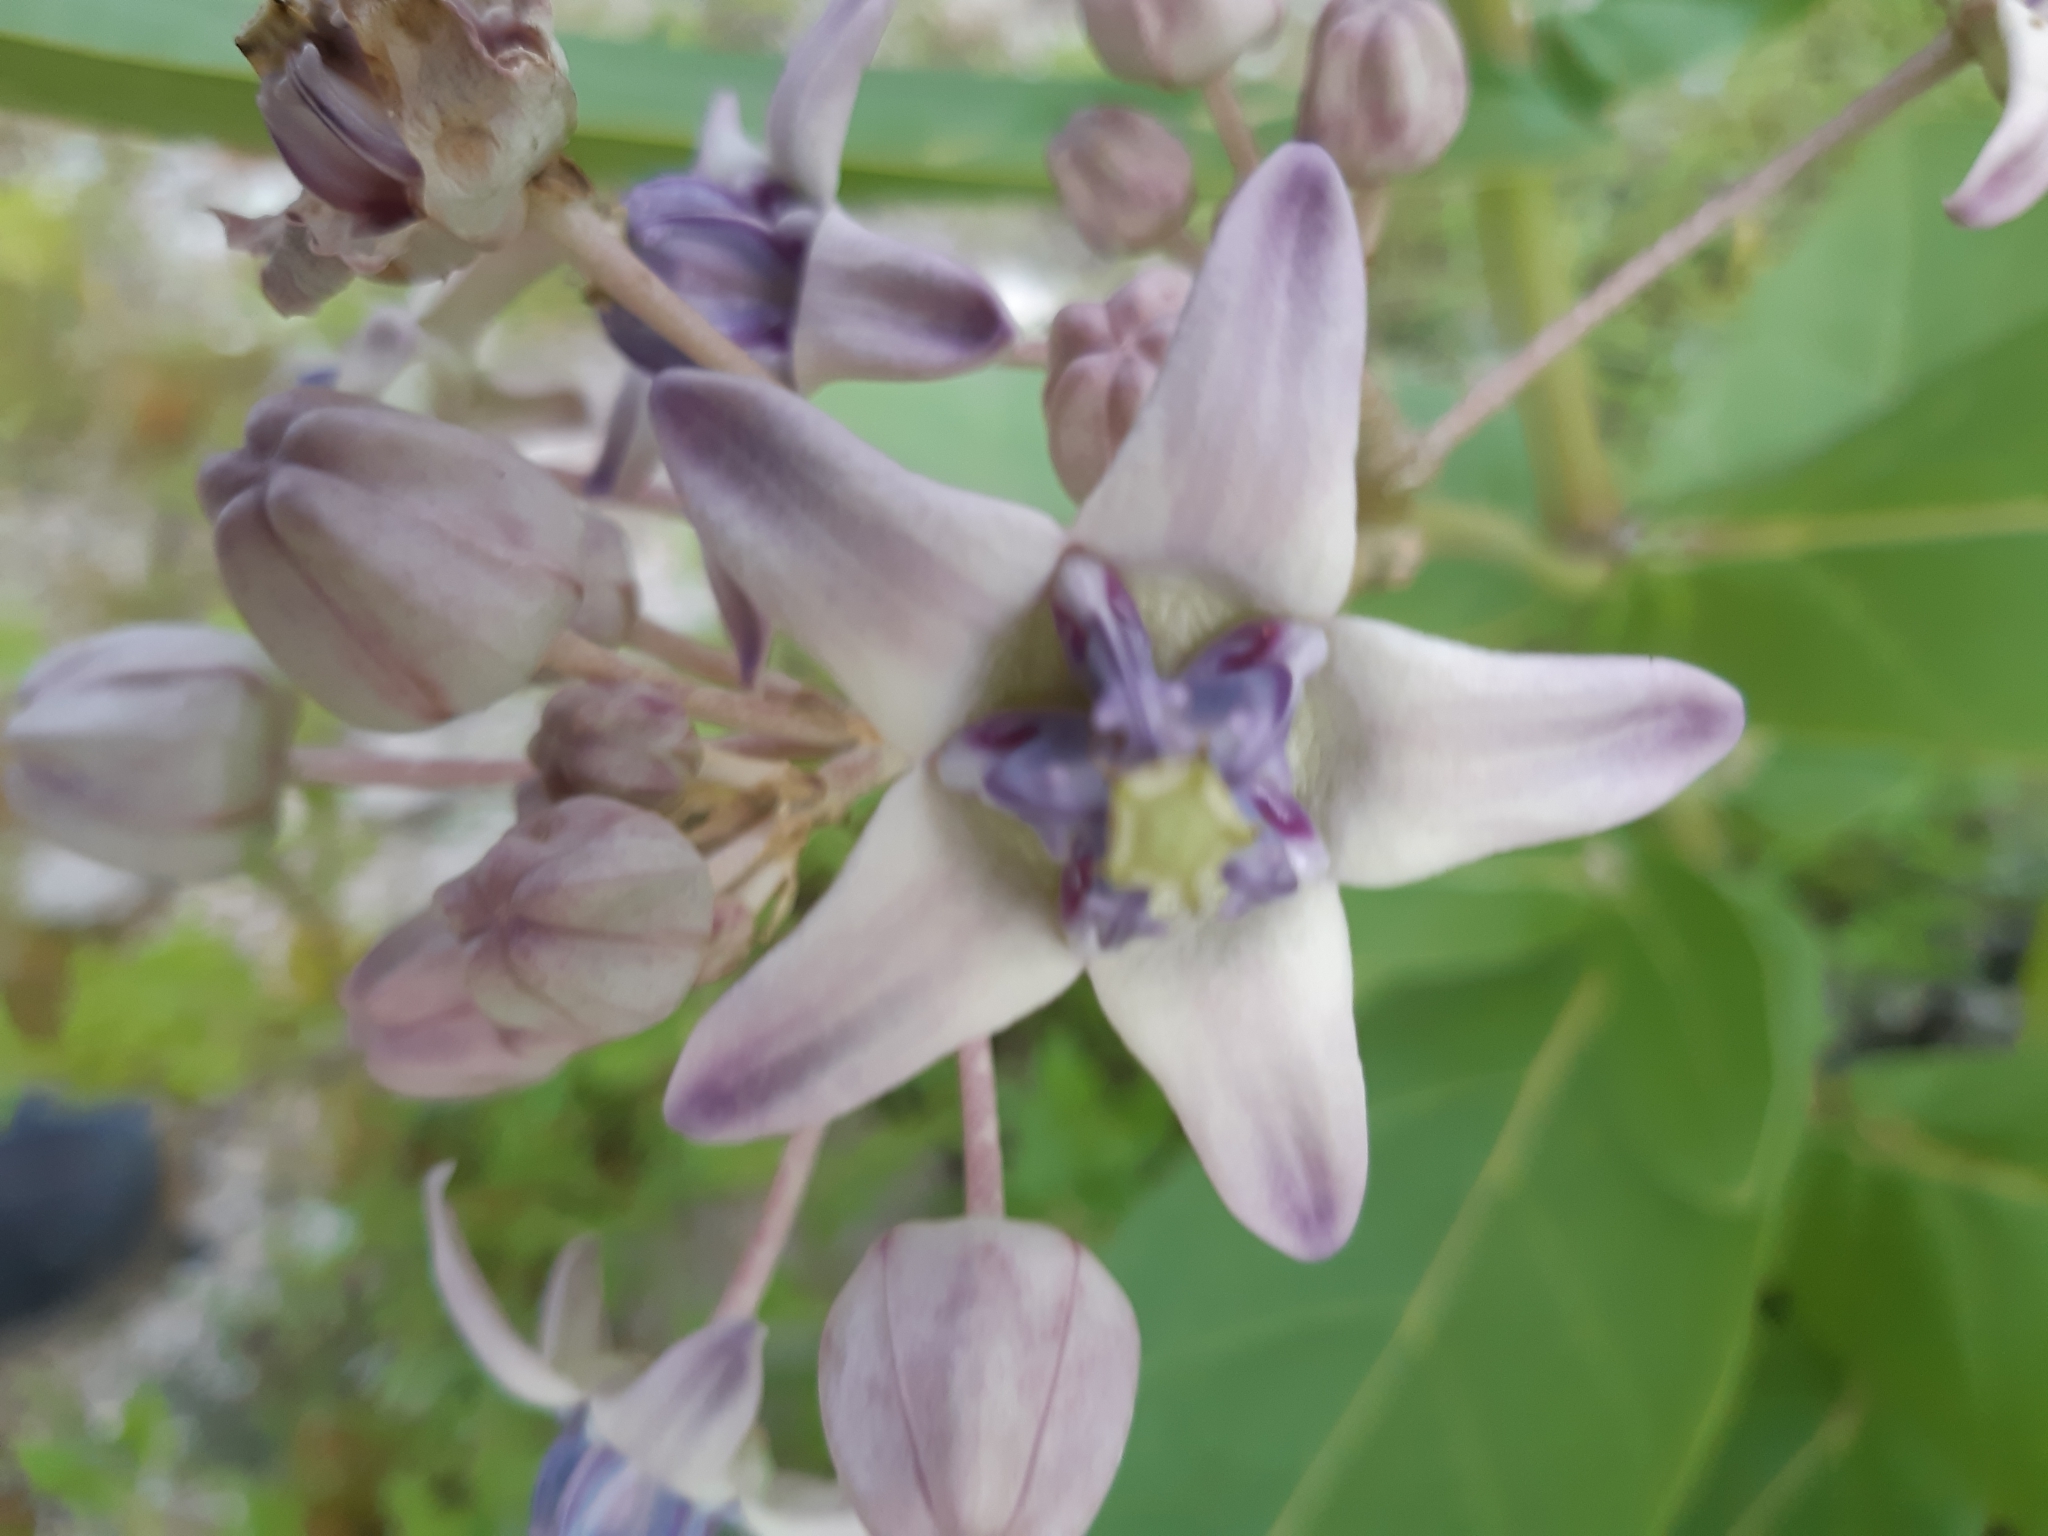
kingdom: Plantae
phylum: Tracheophyta
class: Magnoliopsida
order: Gentianales
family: Apocynaceae
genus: Calotropis
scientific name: Calotropis gigantea
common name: Crown flower
